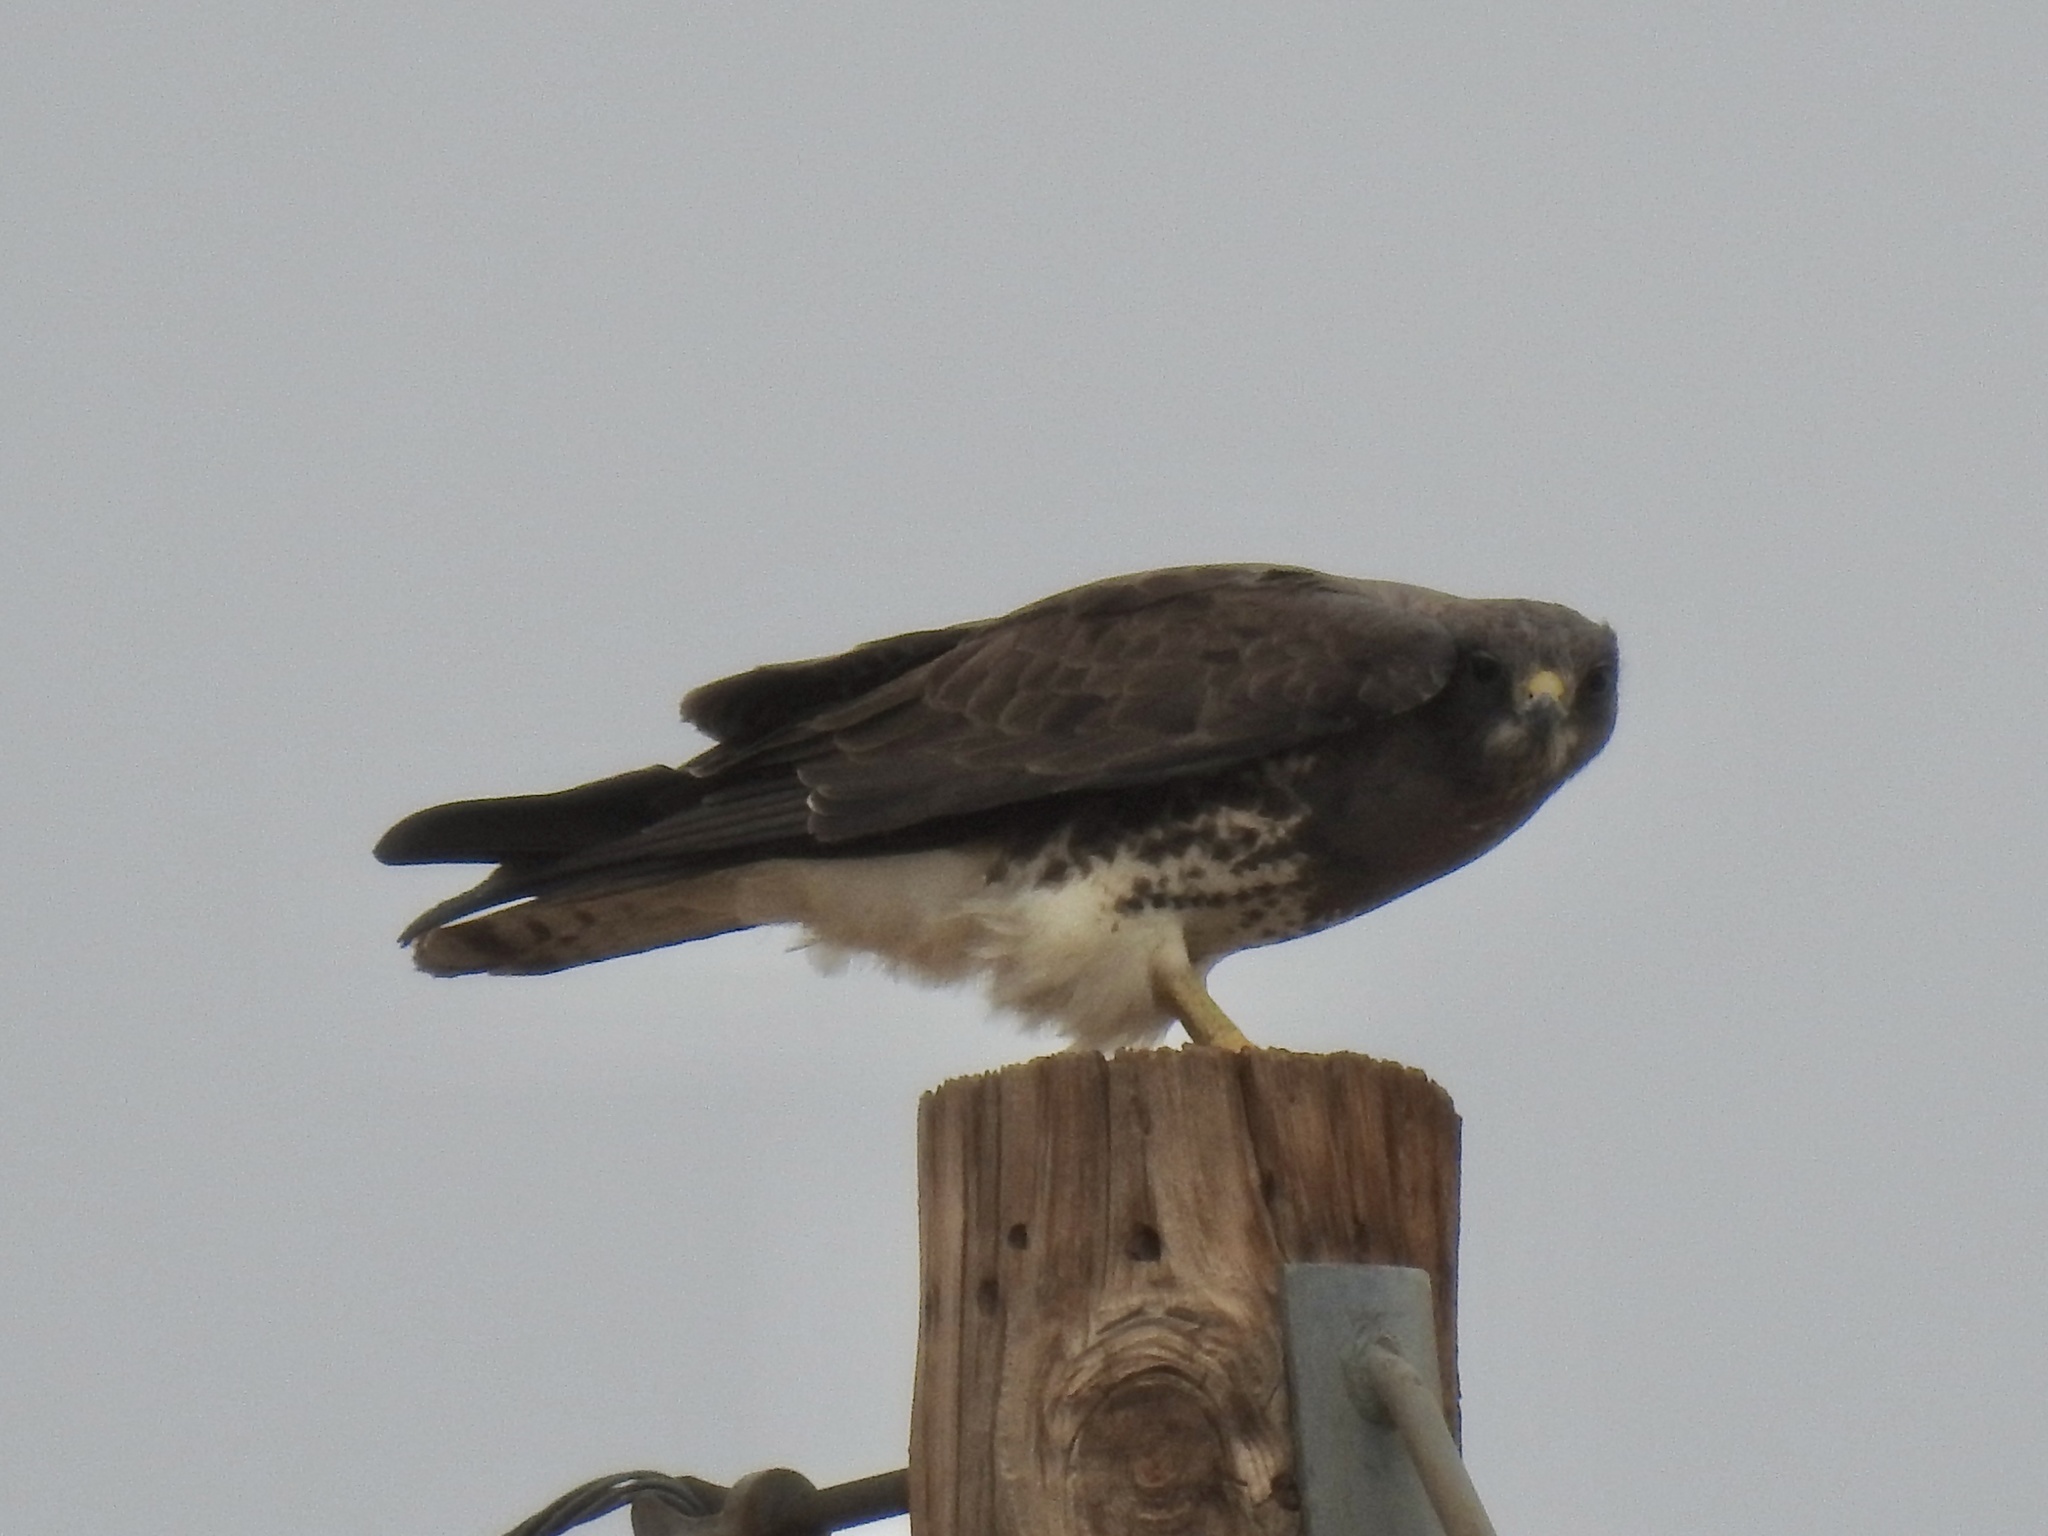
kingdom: Animalia
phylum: Chordata
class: Aves
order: Accipitriformes
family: Accipitridae
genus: Buteo
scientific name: Buteo swainsoni
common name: Swainson's hawk
